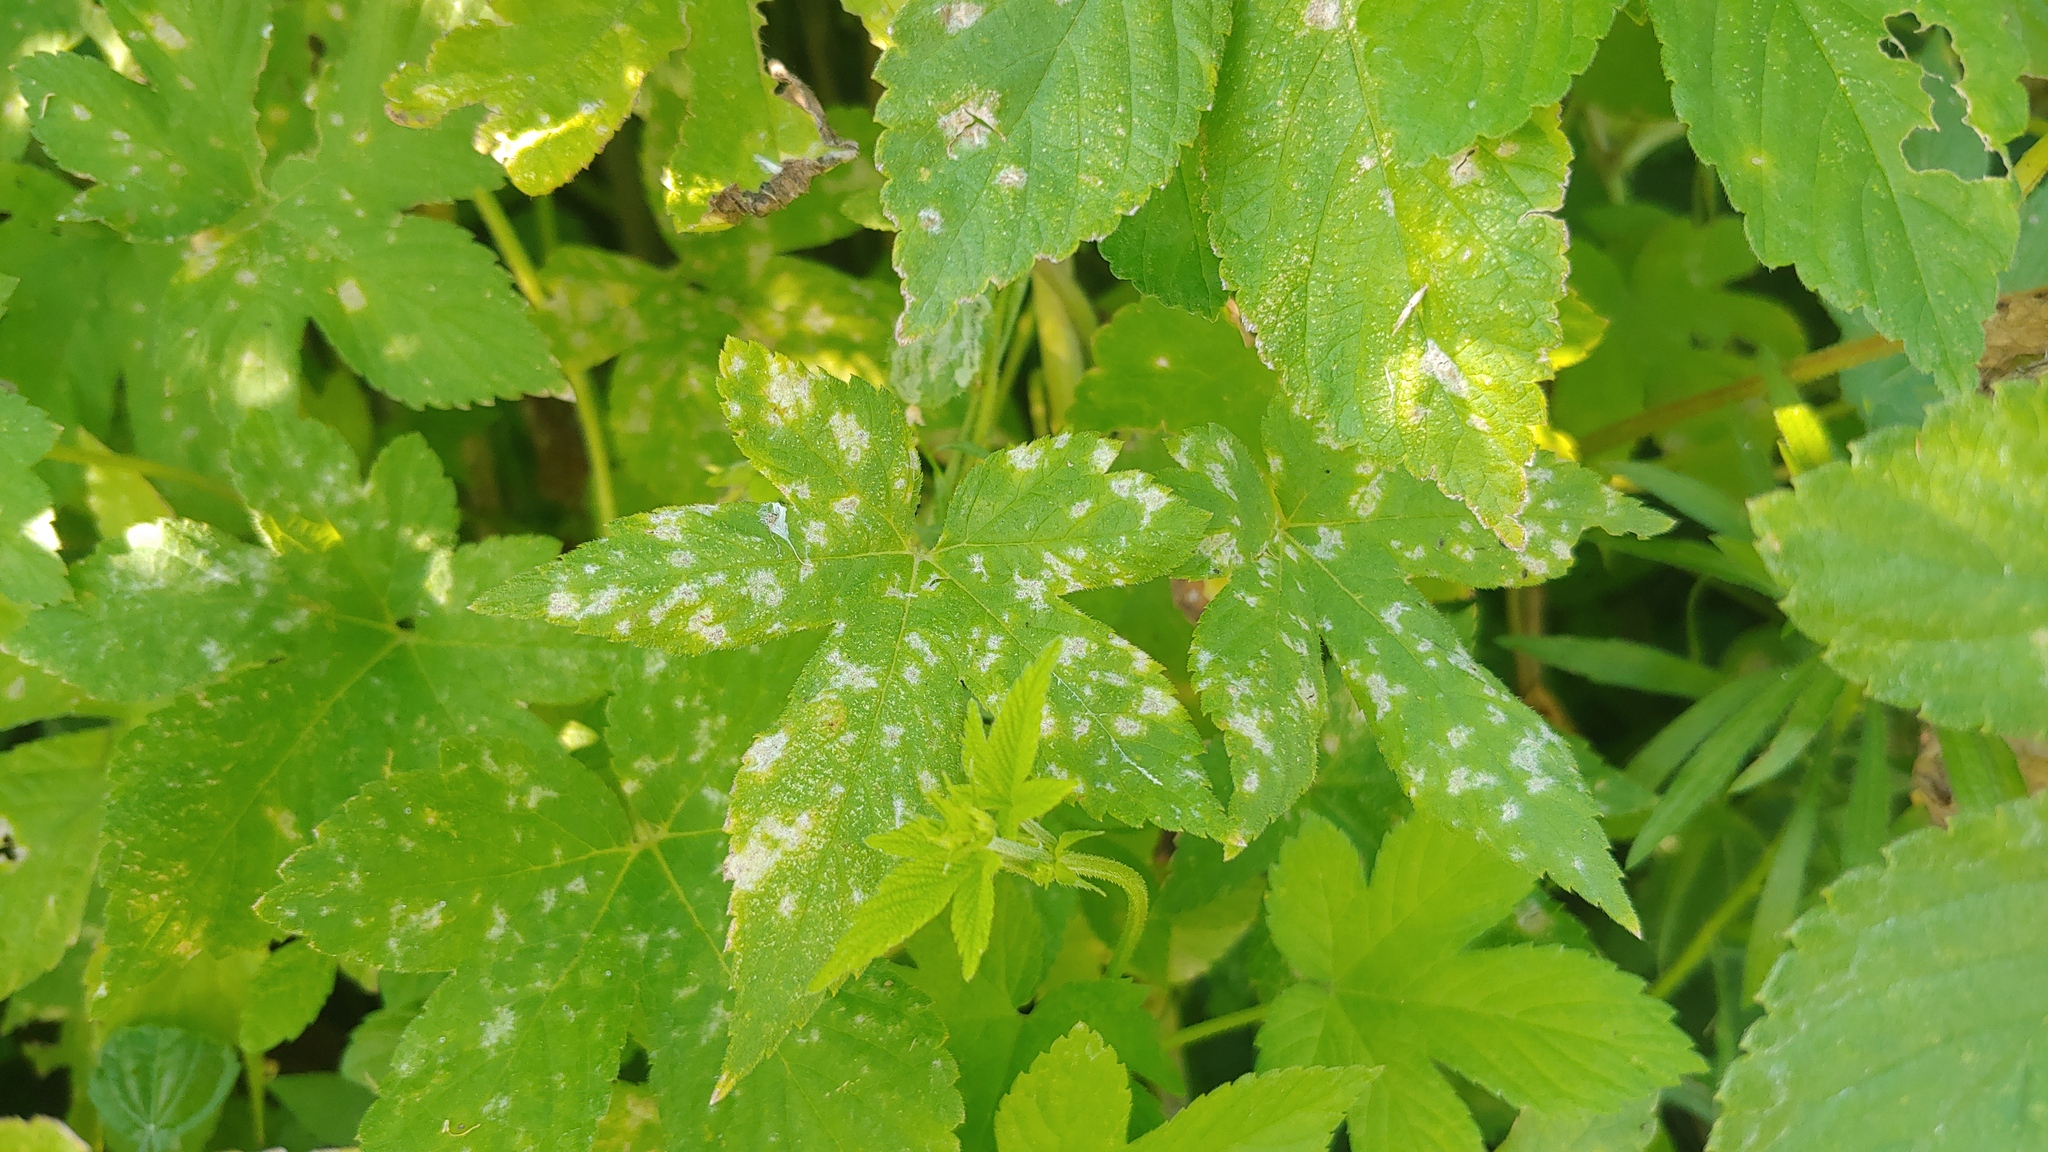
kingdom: Fungi
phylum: Ascomycota
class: Leotiomycetes
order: Helotiales
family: Erysiphaceae
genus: Podosphaera
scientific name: Podosphaera macularis
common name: Powdery mildew
